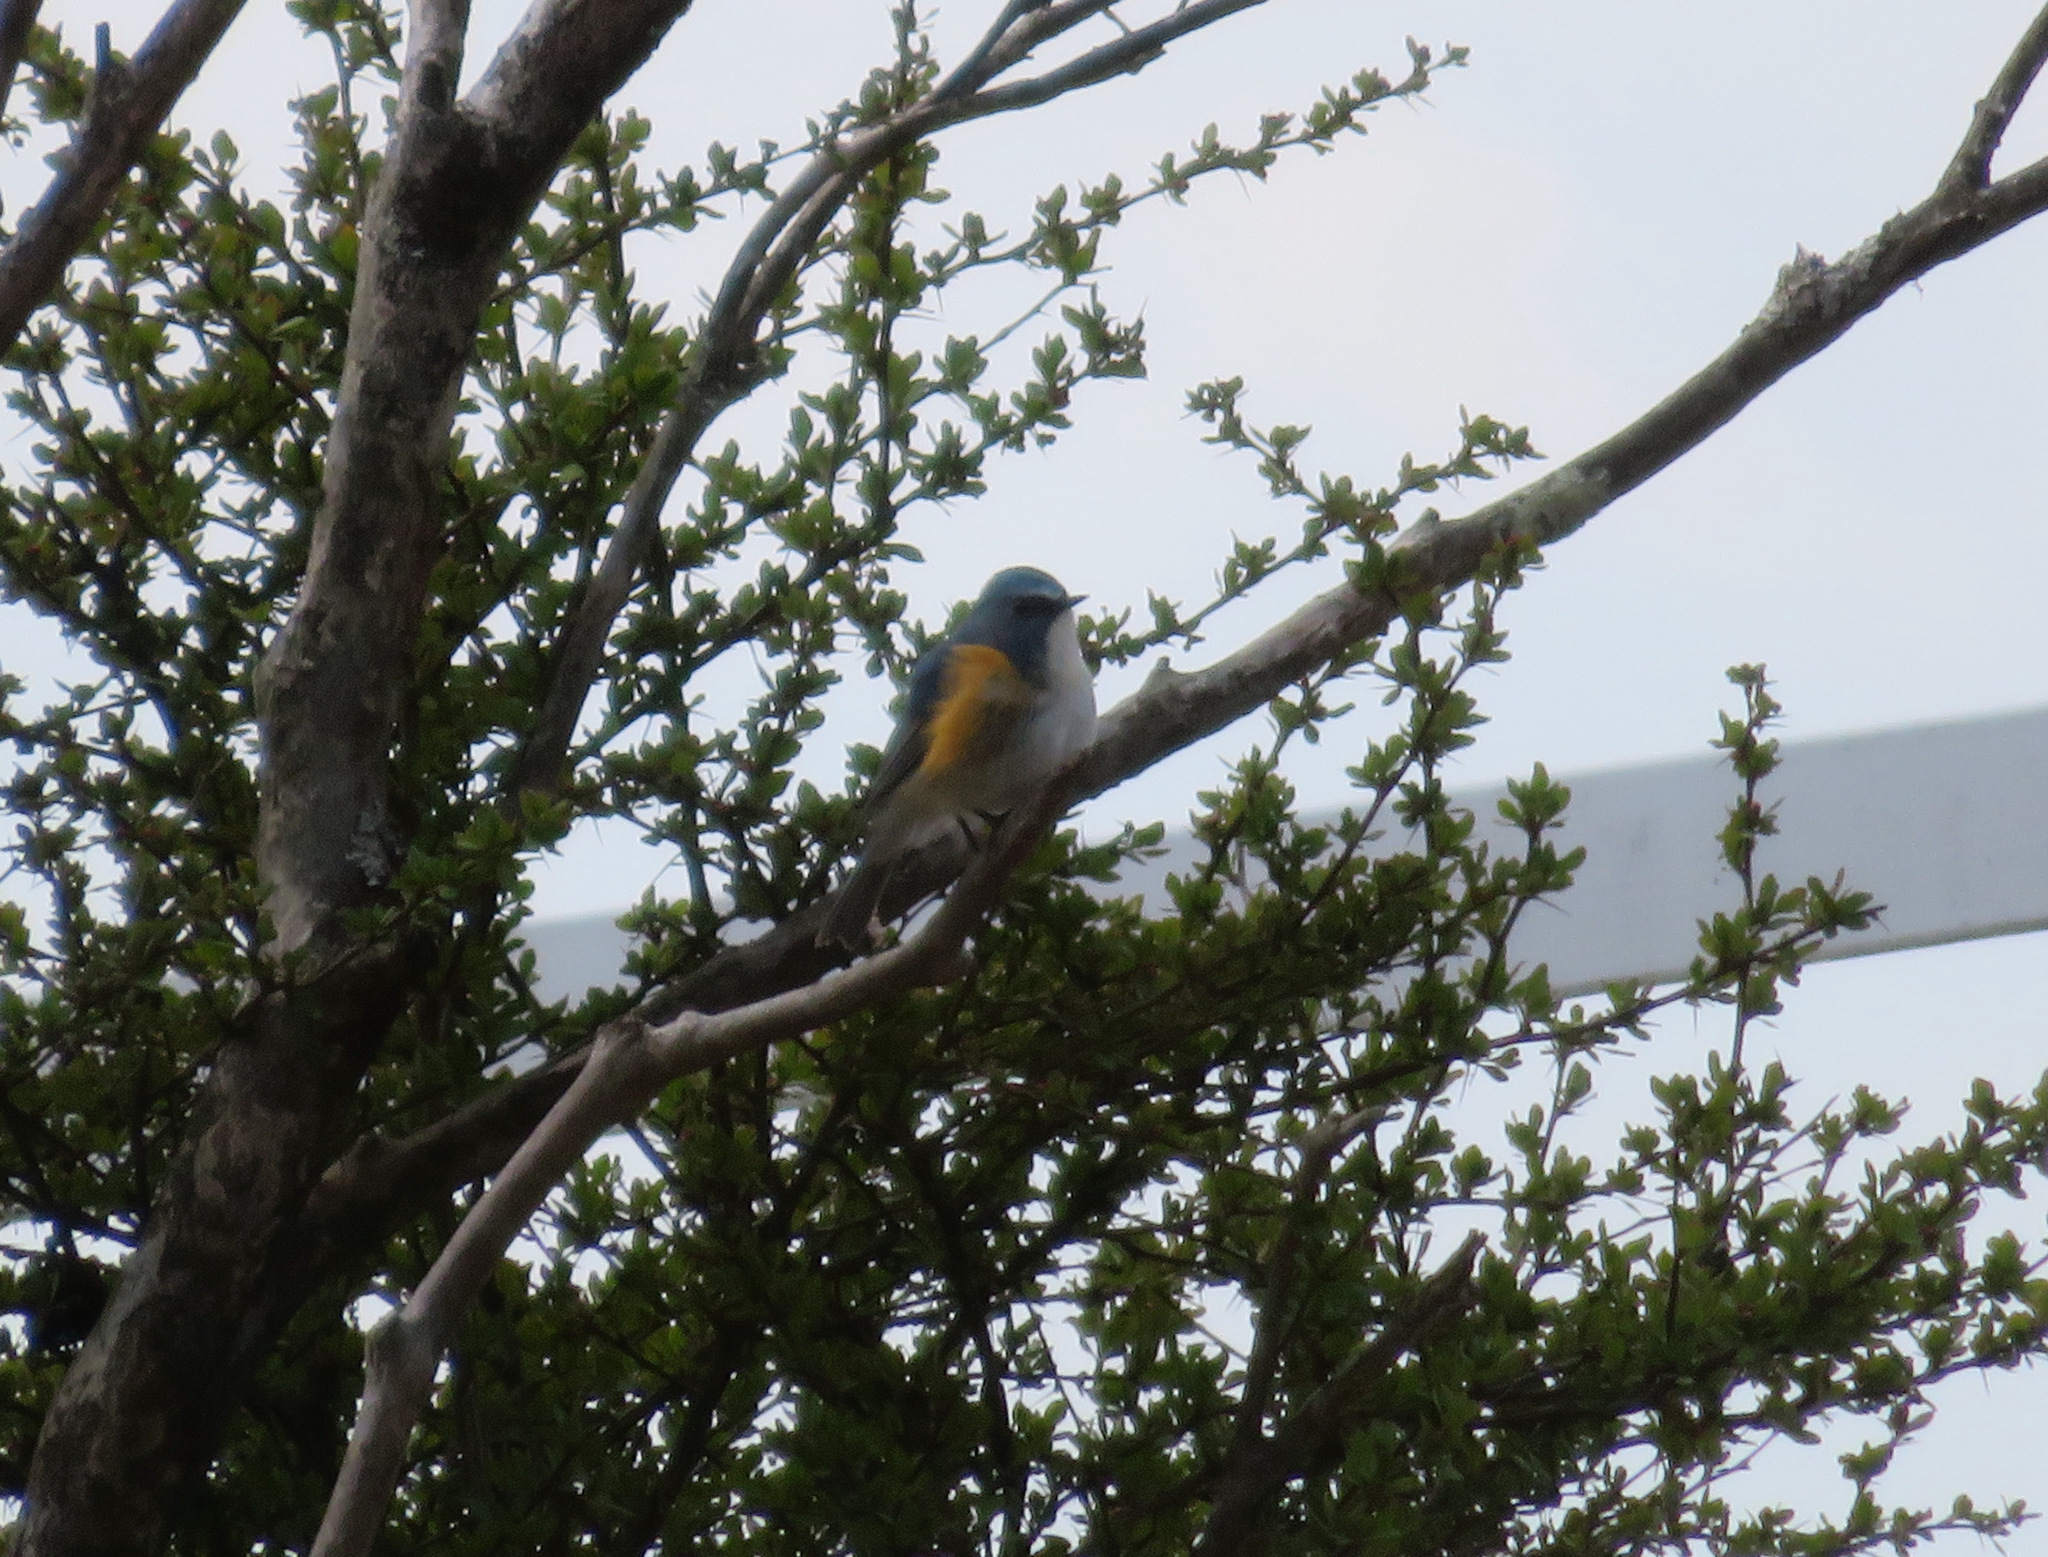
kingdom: Animalia
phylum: Chordata
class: Aves
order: Passeriformes
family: Muscicapidae
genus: Tarsiger
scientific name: Tarsiger cyanurus
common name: Red-flanked bluetail
